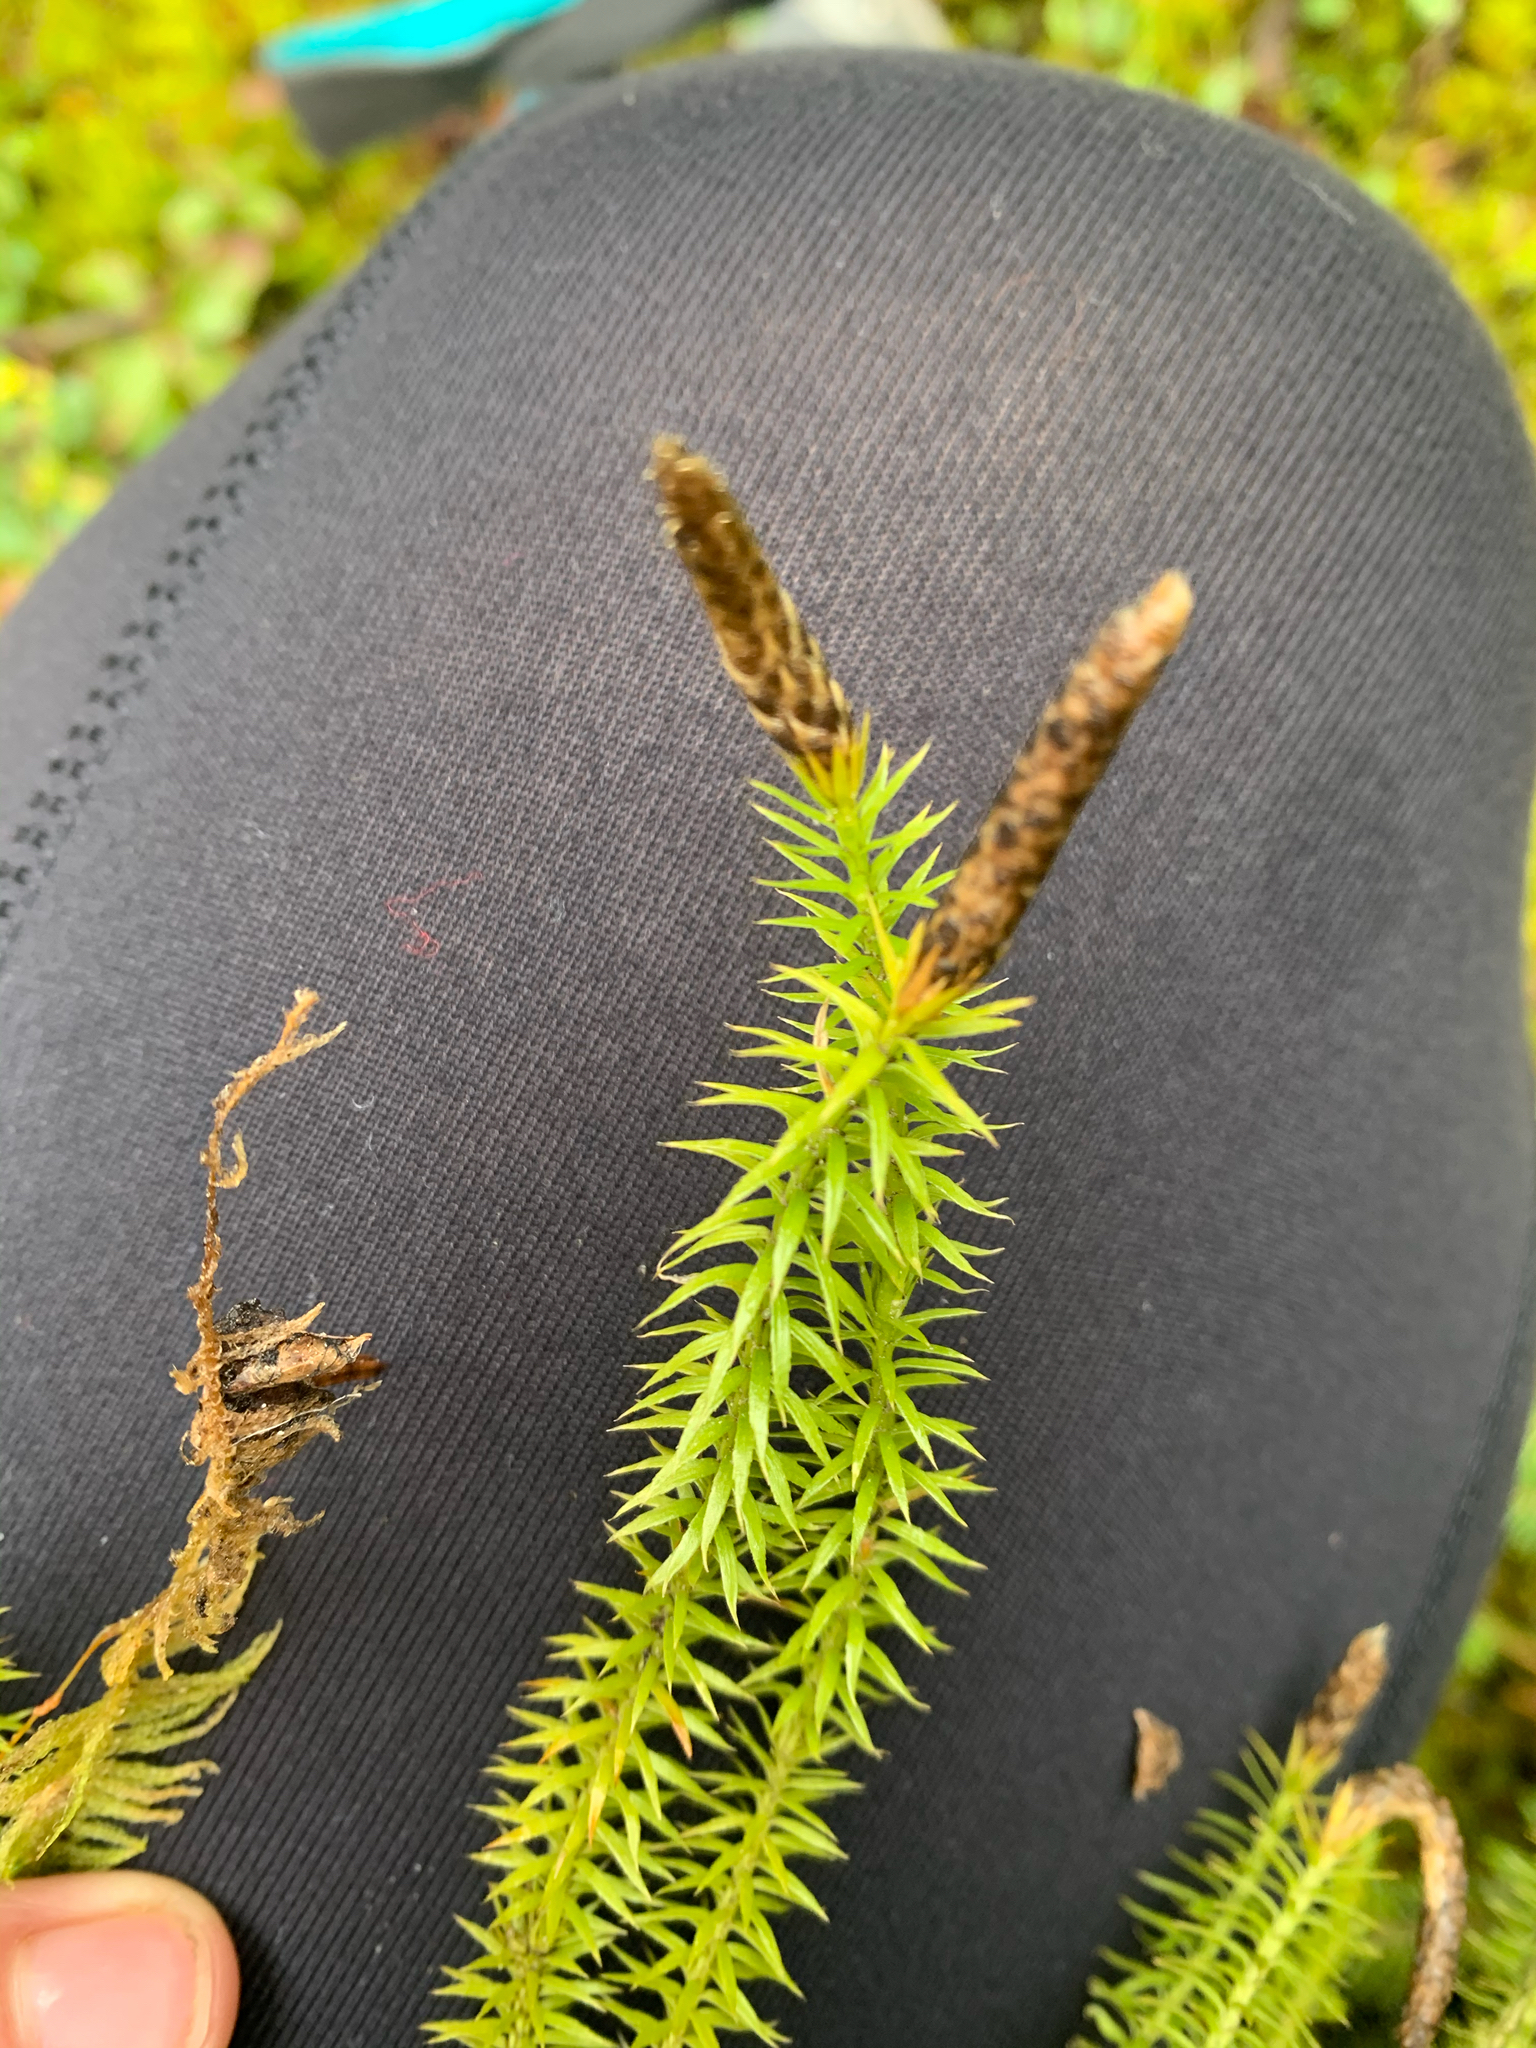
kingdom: Plantae
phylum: Tracheophyta
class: Lycopodiopsida
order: Lycopodiales
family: Lycopodiaceae
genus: Spinulum
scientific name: Spinulum annotinum
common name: Interrupted club-moss
